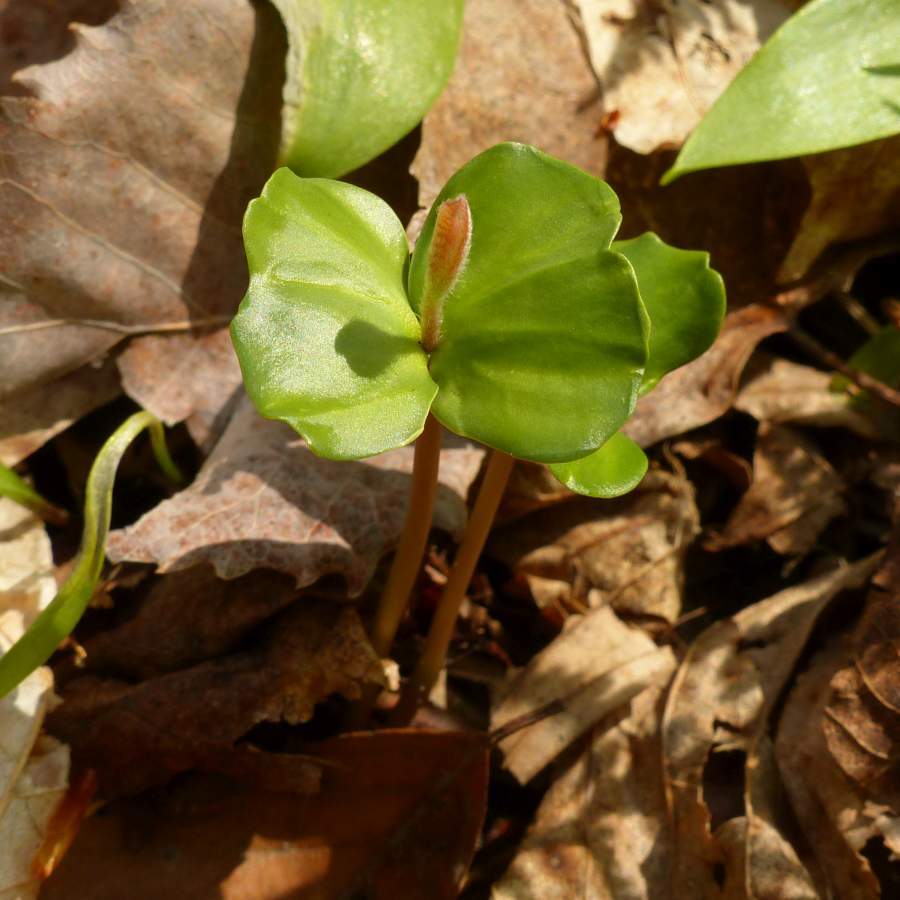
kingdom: Plantae
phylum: Tracheophyta
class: Magnoliopsida
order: Fagales
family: Fagaceae
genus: Fagus
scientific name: Fagus grandifolia
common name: American beech
